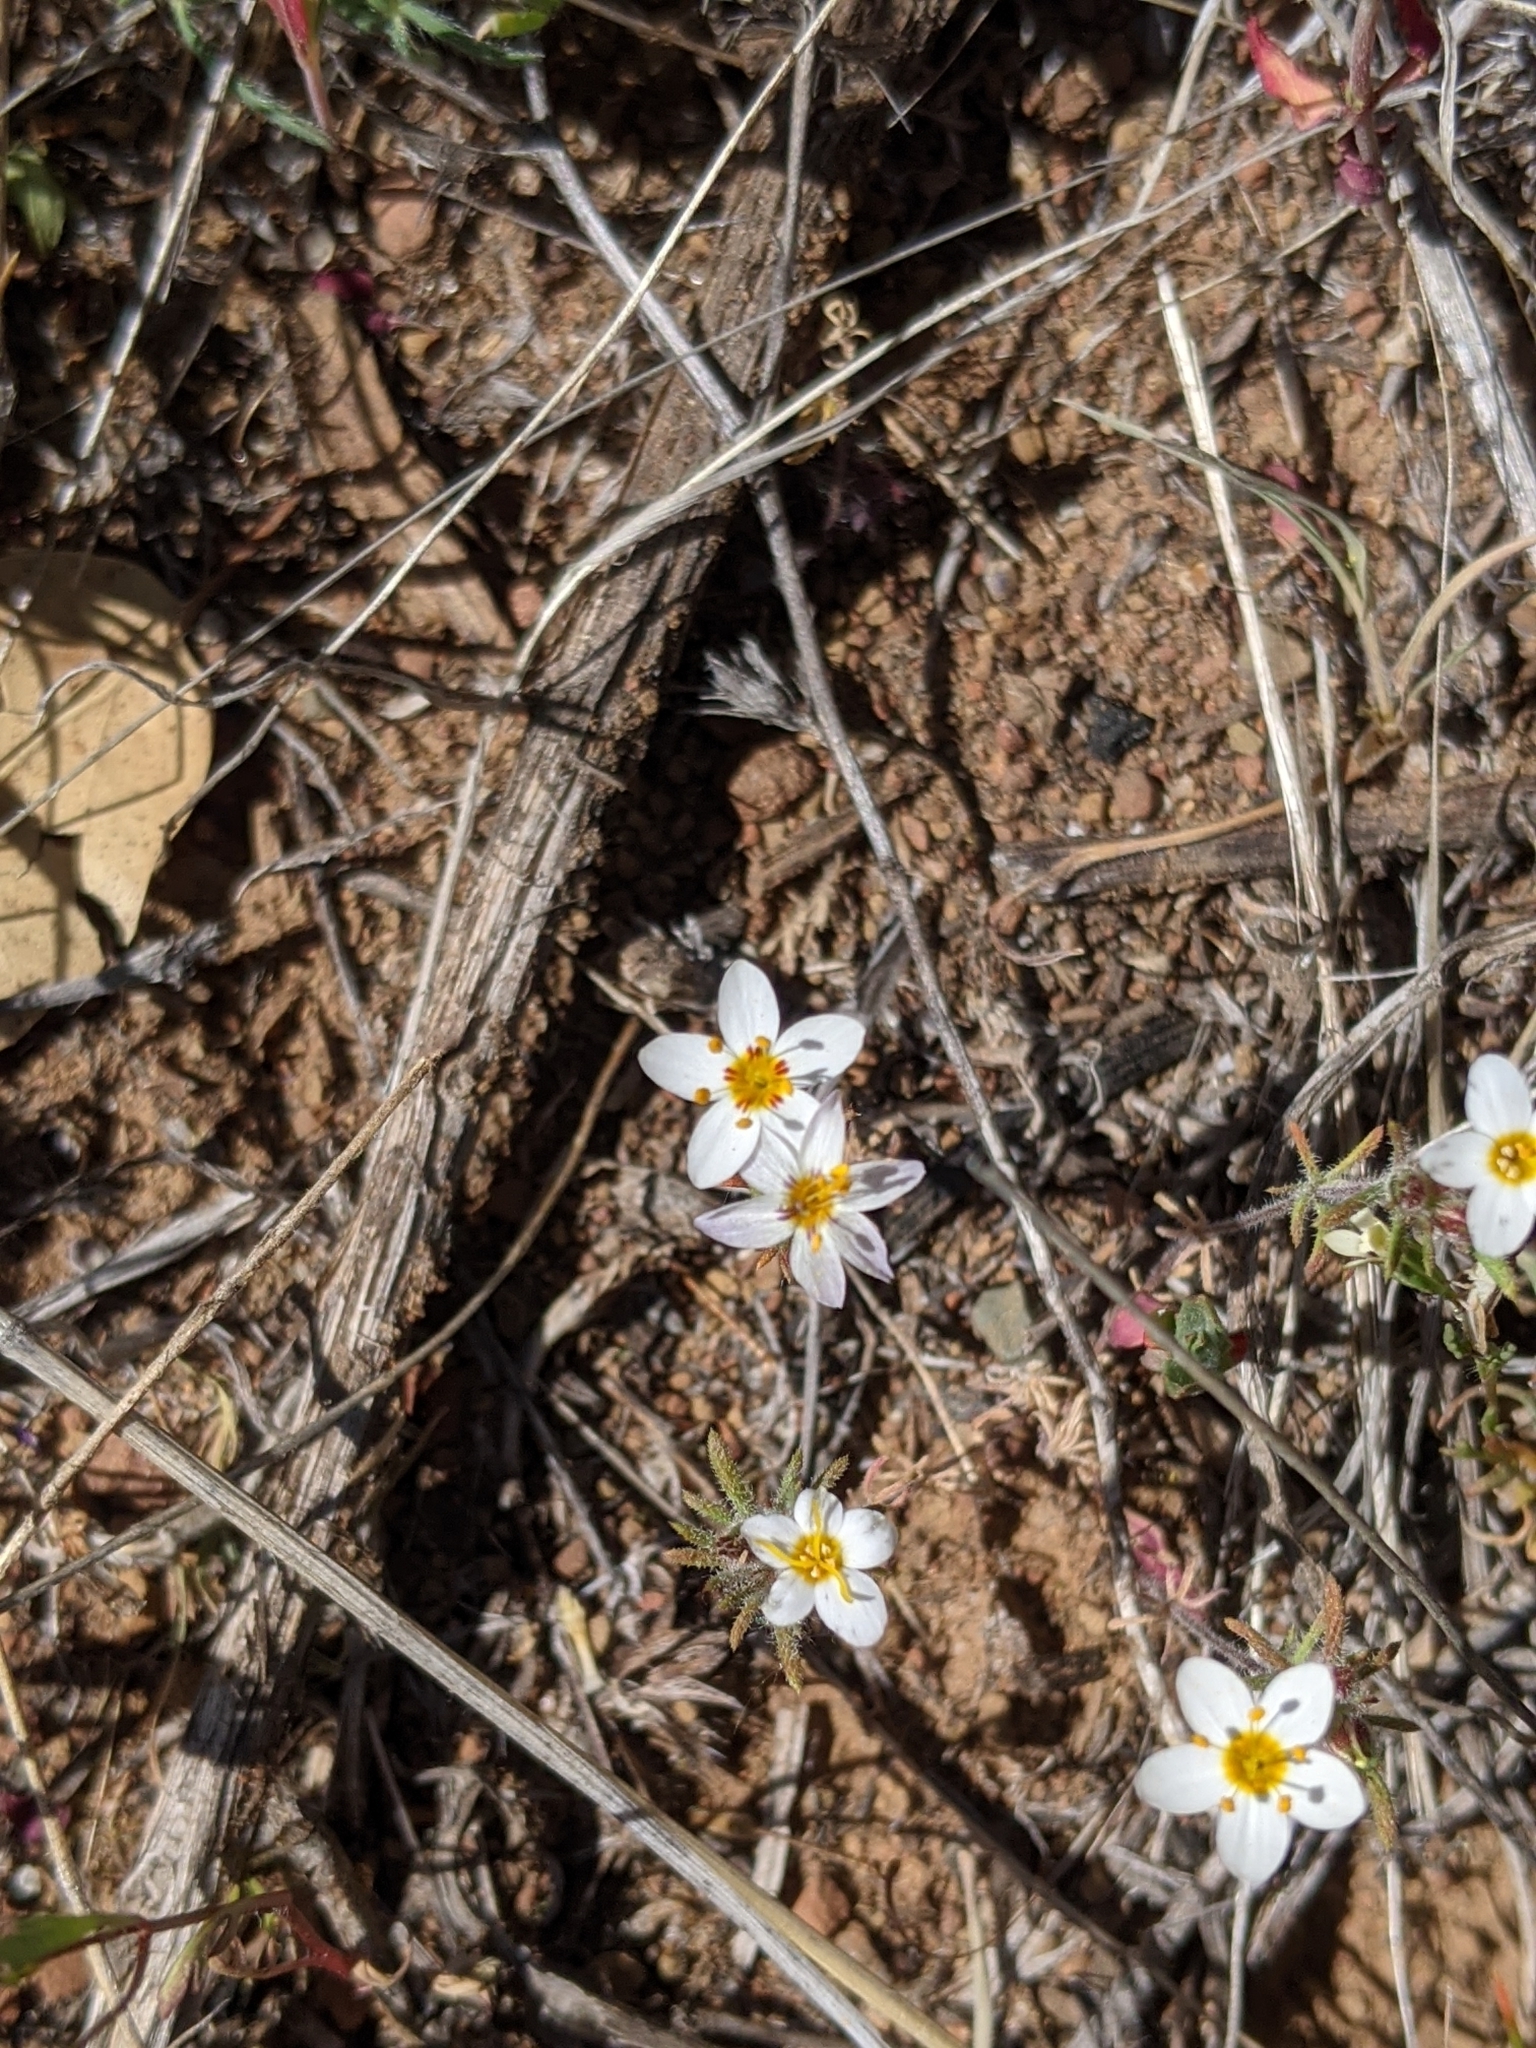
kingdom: Plantae
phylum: Tracheophyta
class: Magnoliopsida
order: Ericales
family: Polemoniaceae
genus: Leptosiphon
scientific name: Leptosiphon parviflorus
